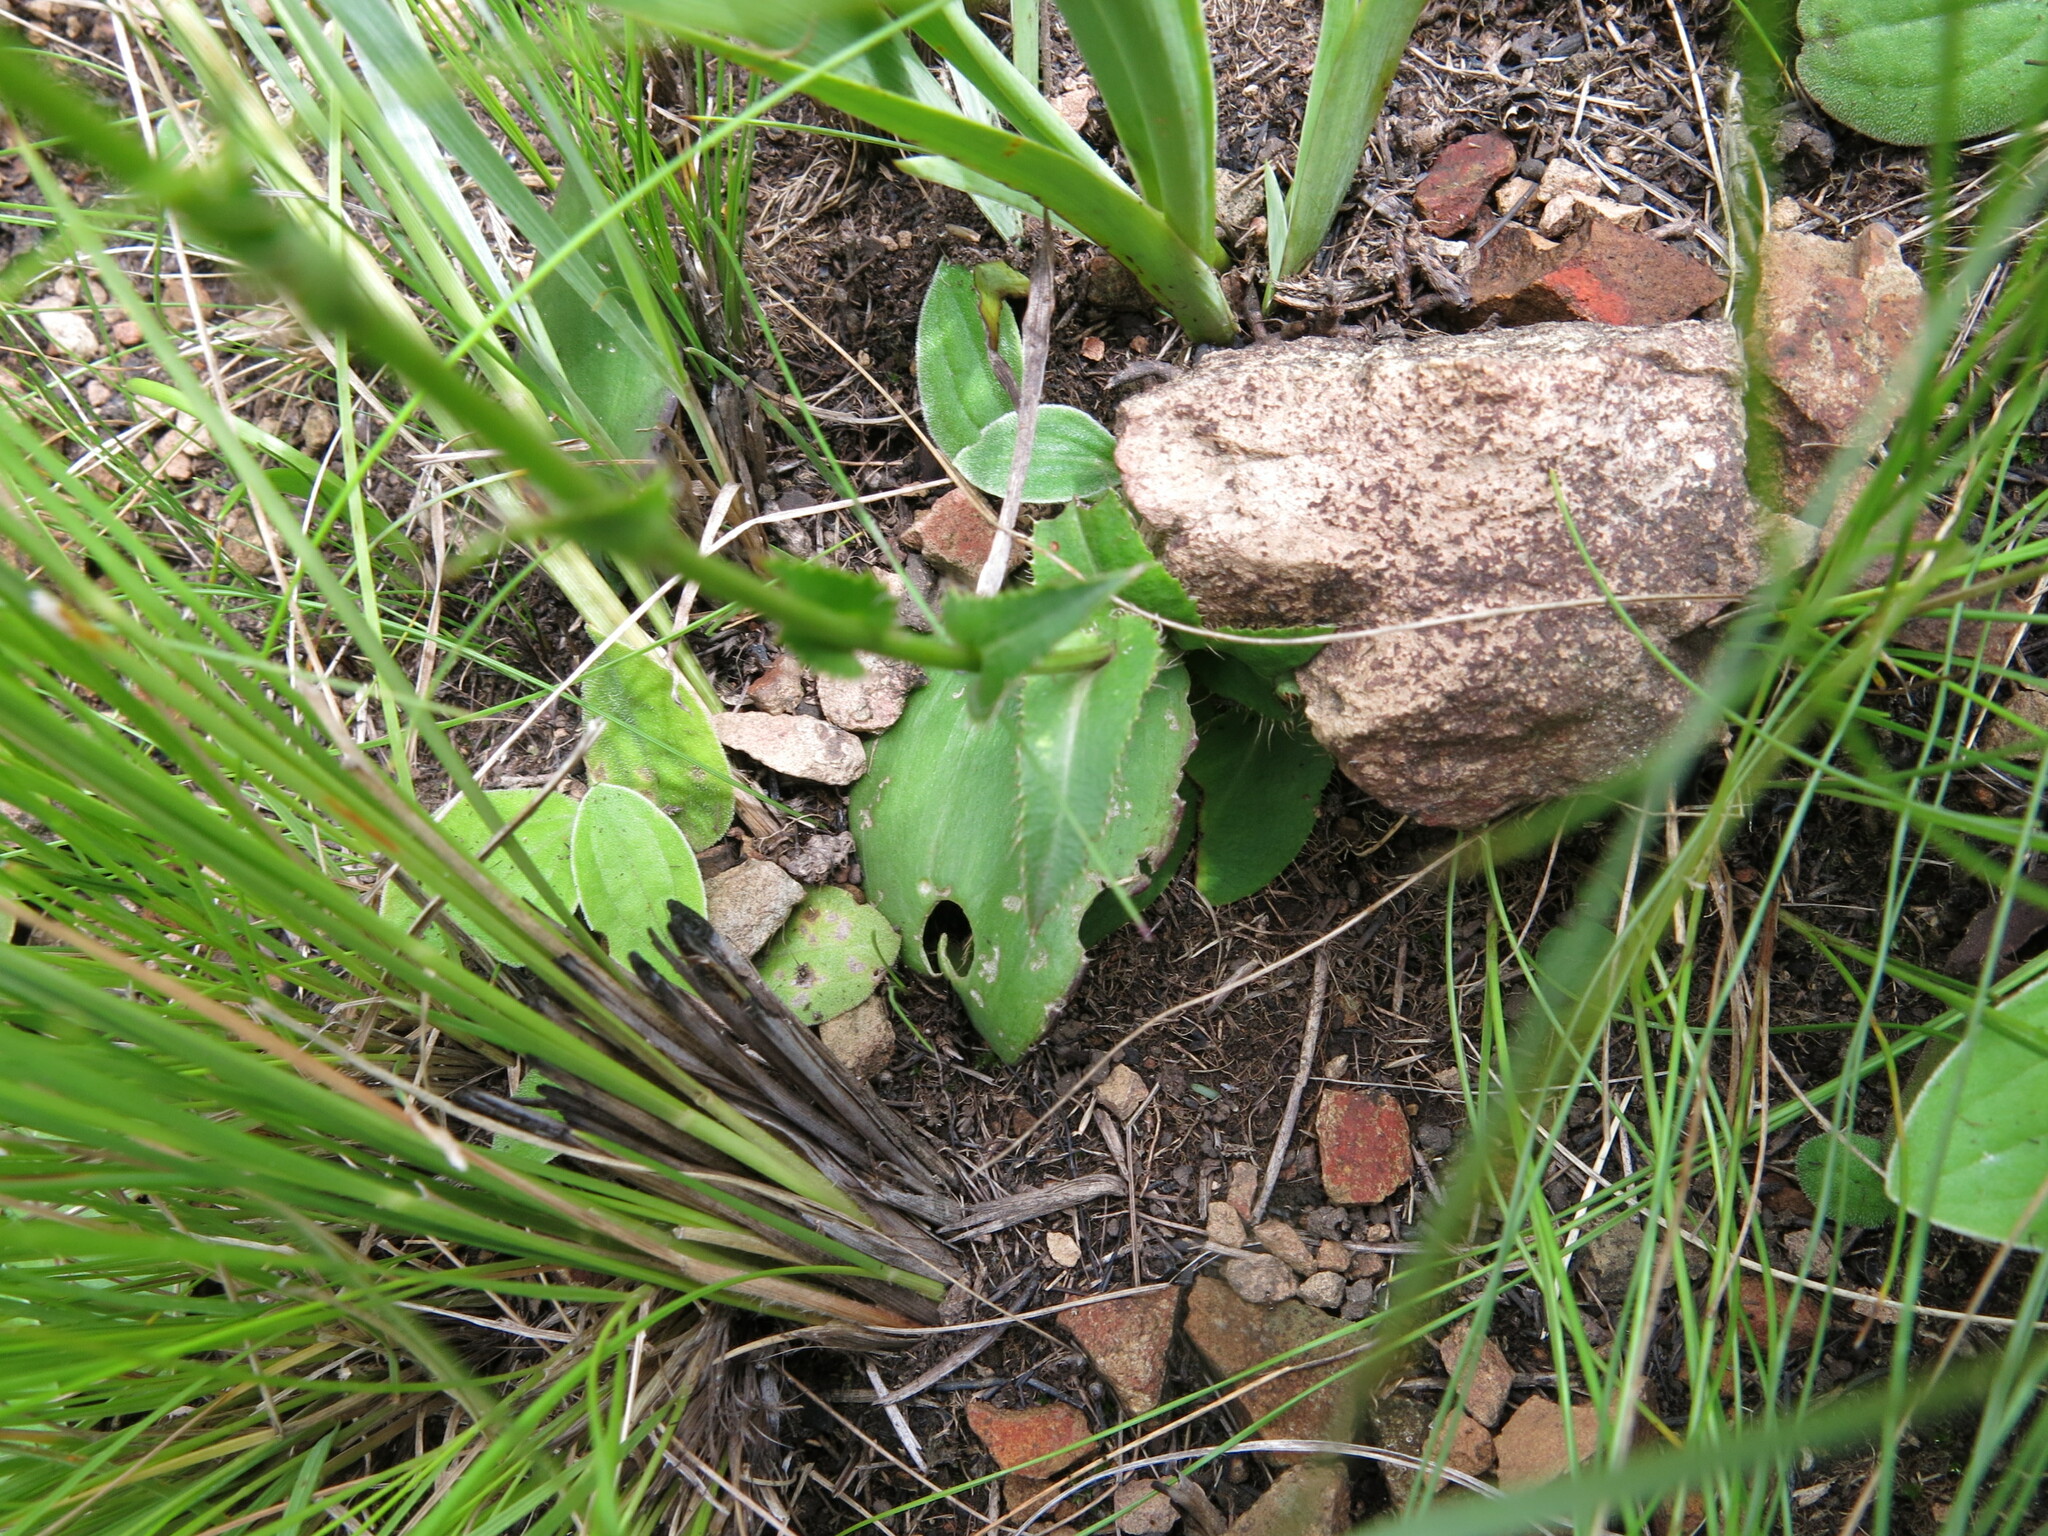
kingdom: Plantae
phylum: Tracheophyta
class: Magnoliopsida
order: Apiales
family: Apiaceae
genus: Alepidea
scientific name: Alepidea natalensis
